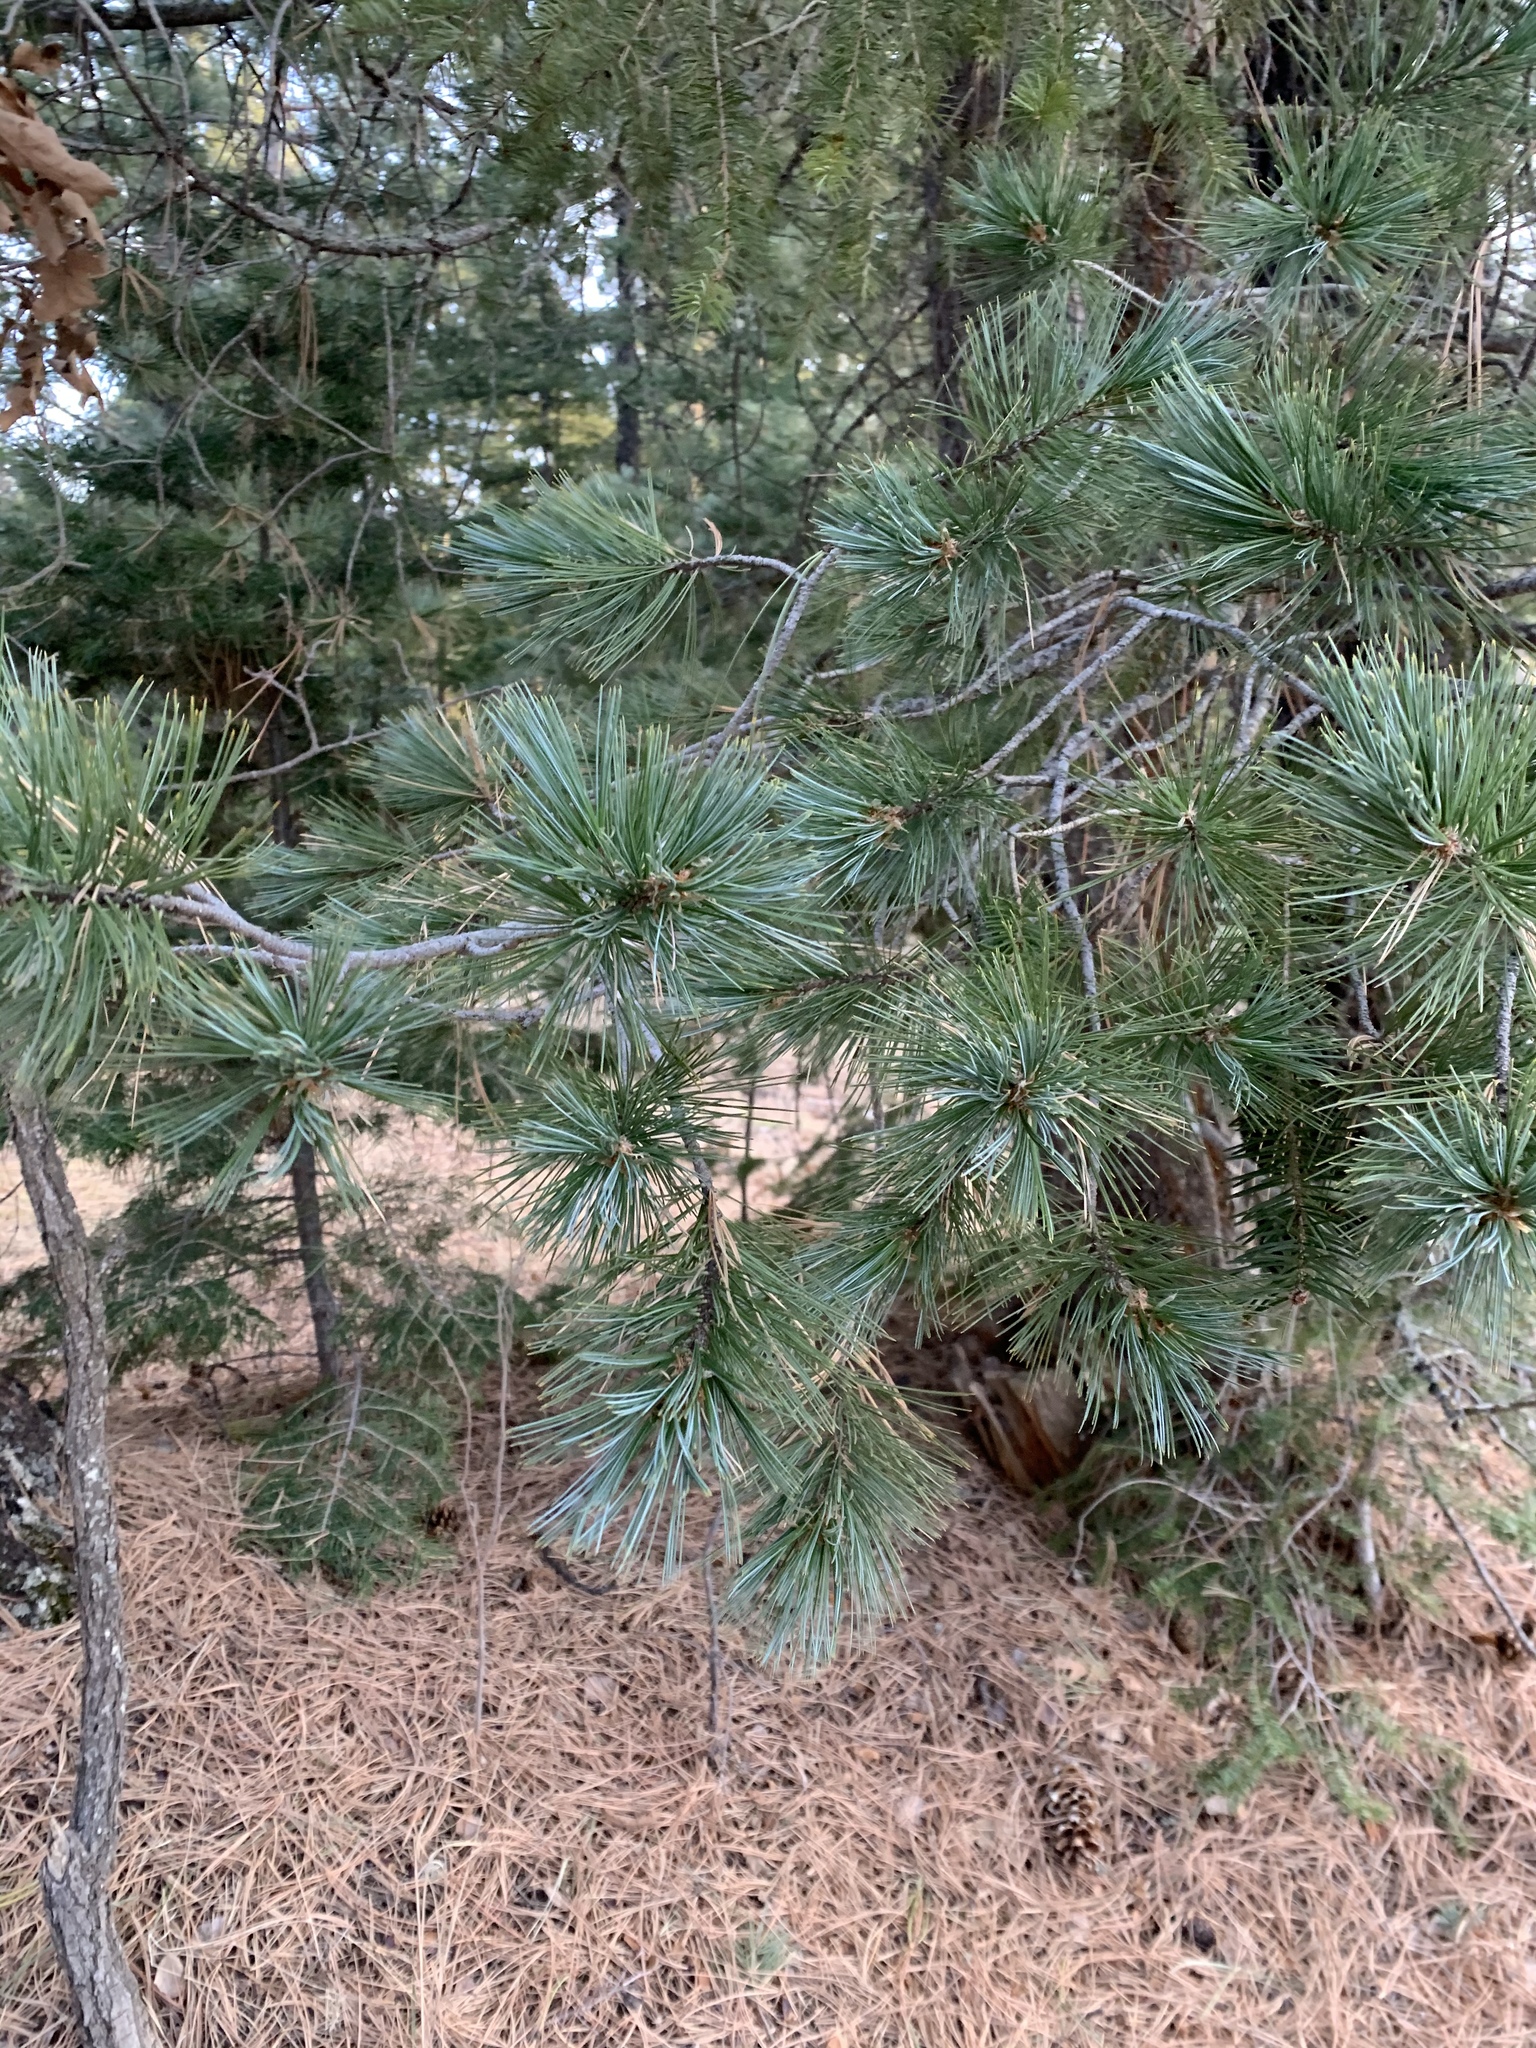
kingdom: Plantae
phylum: Tracheophyta
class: Pinopsida
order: Pinales
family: Pinaceae
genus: Pinus
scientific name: Pinus strobiformis
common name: Southwestern white pine
